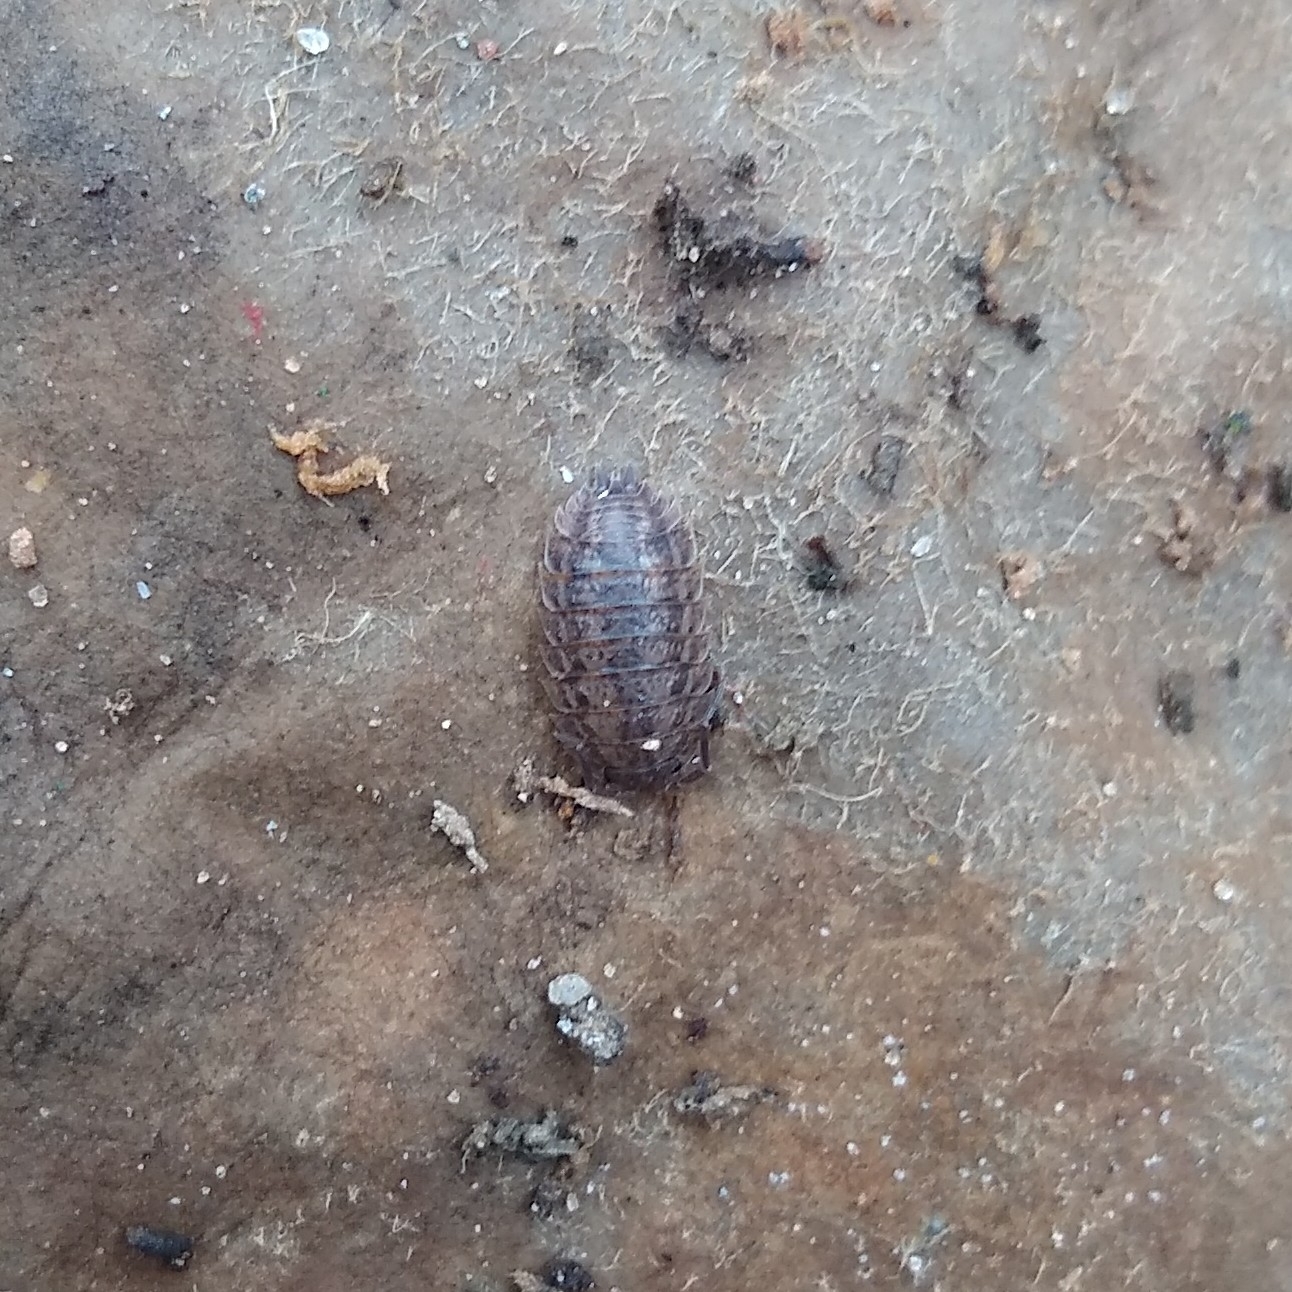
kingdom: Animalia
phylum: Arthropoda
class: Malacostraca
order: Isopoda
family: Trachelipodidae
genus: Trachelipus
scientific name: Trachelipus rathkii
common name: Isopod
